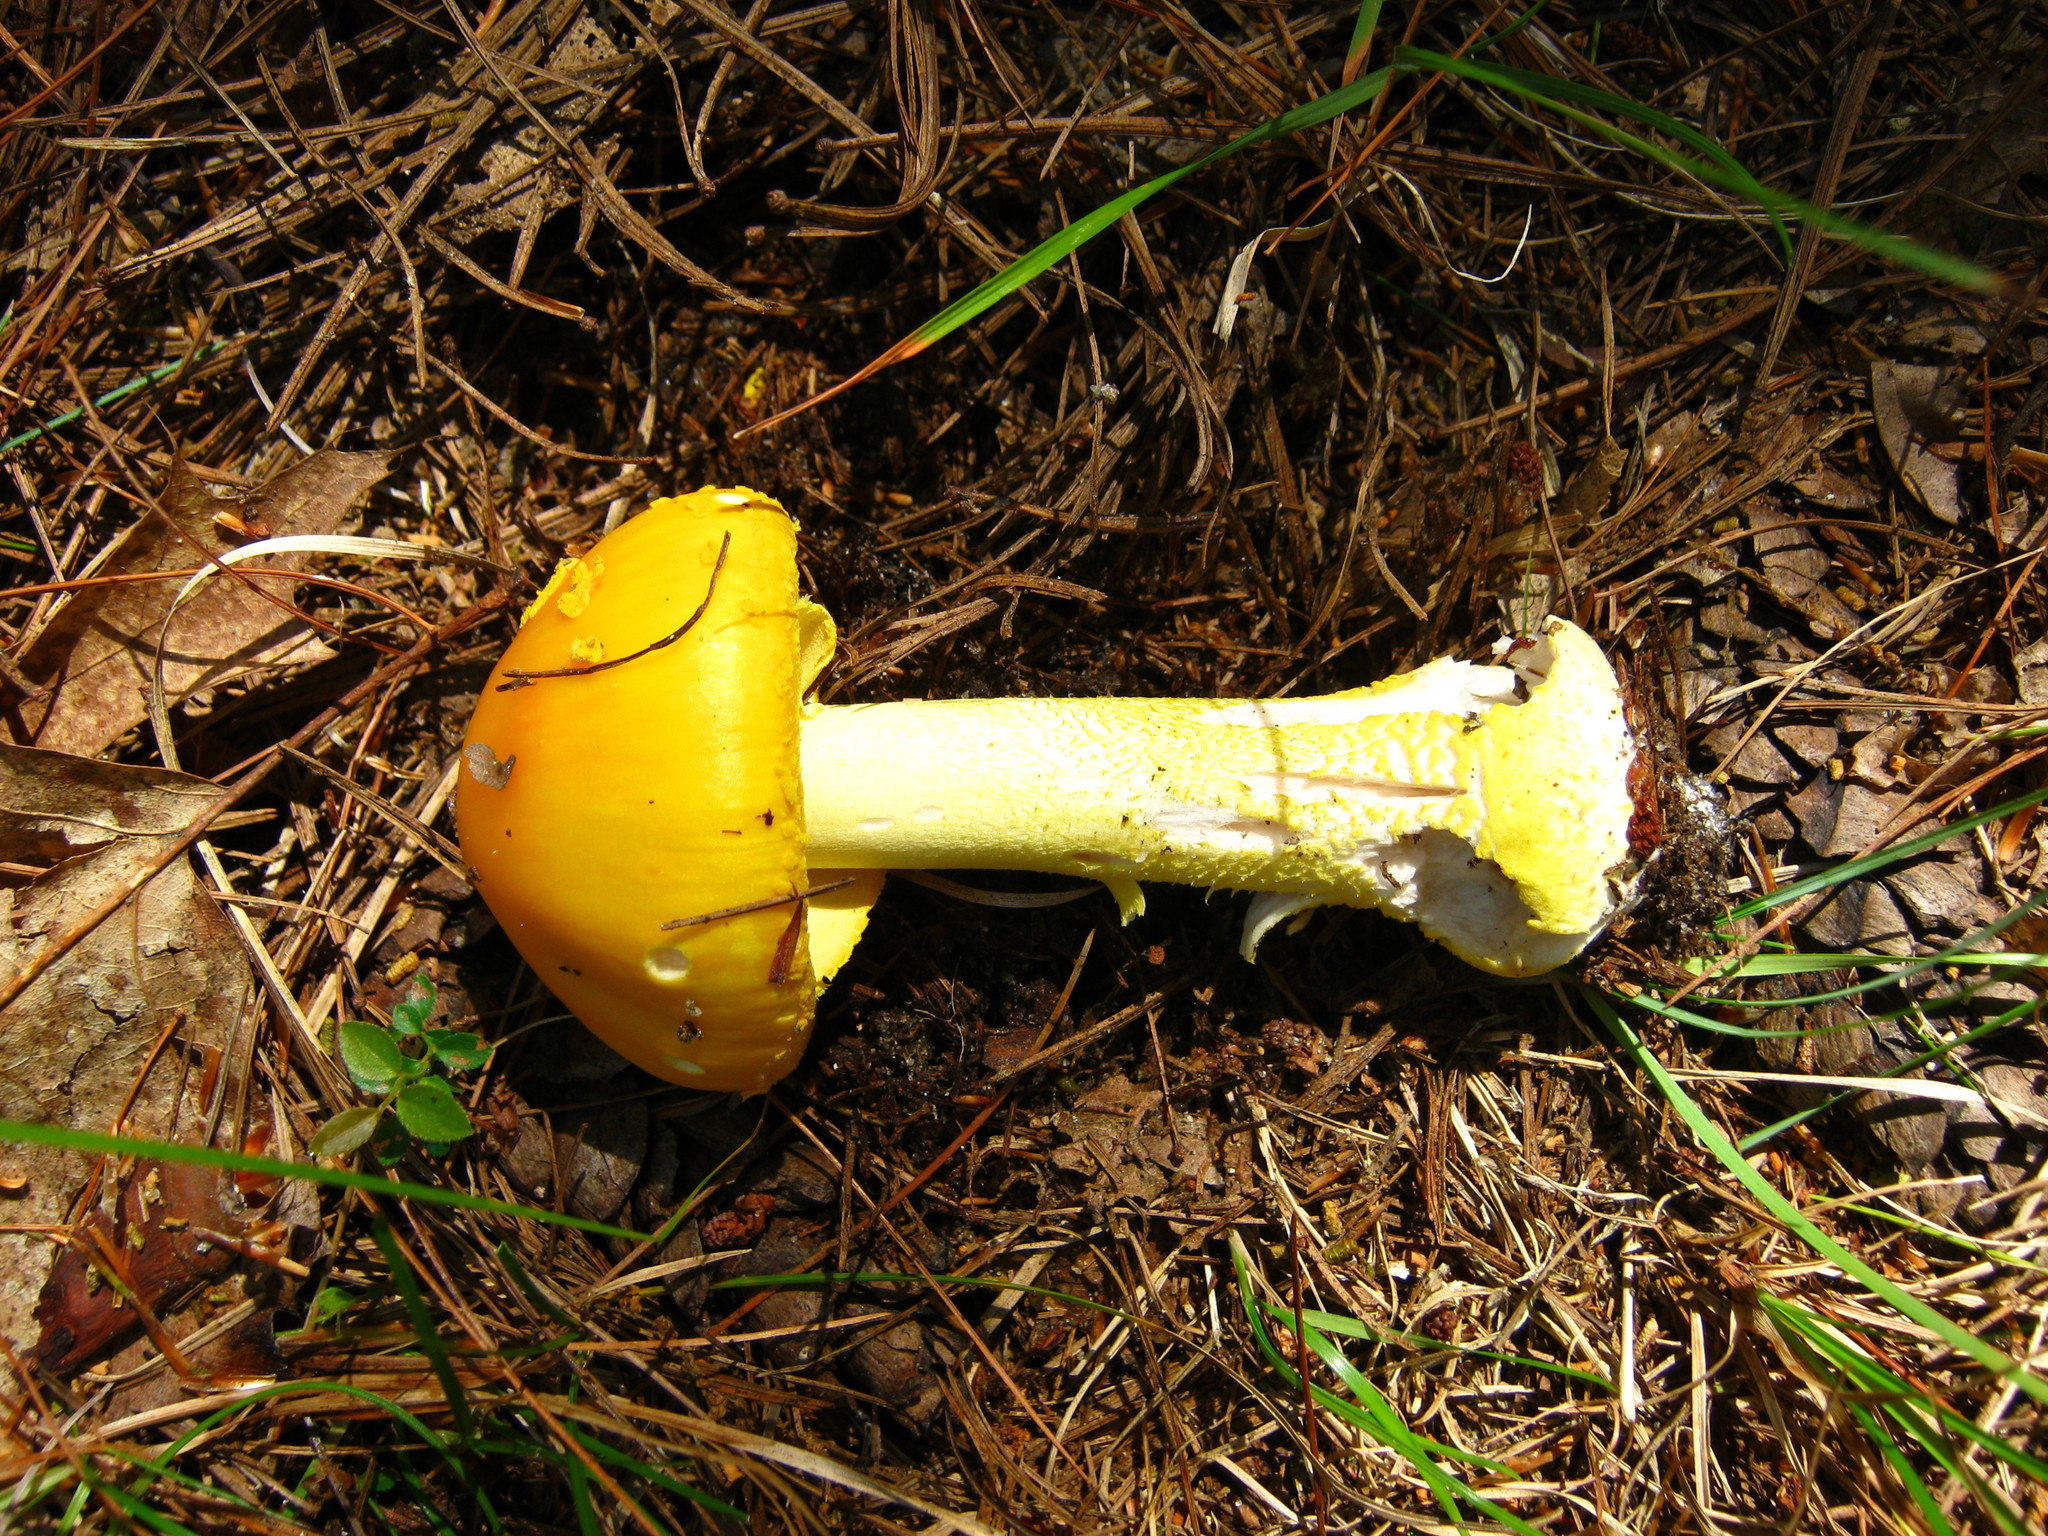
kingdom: Fungi
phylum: Basidiomycota
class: Agaricomycetes
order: Agaricales
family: Amanitaceae
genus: Amanita
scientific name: Amanita flavoconia
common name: Yellow patches
